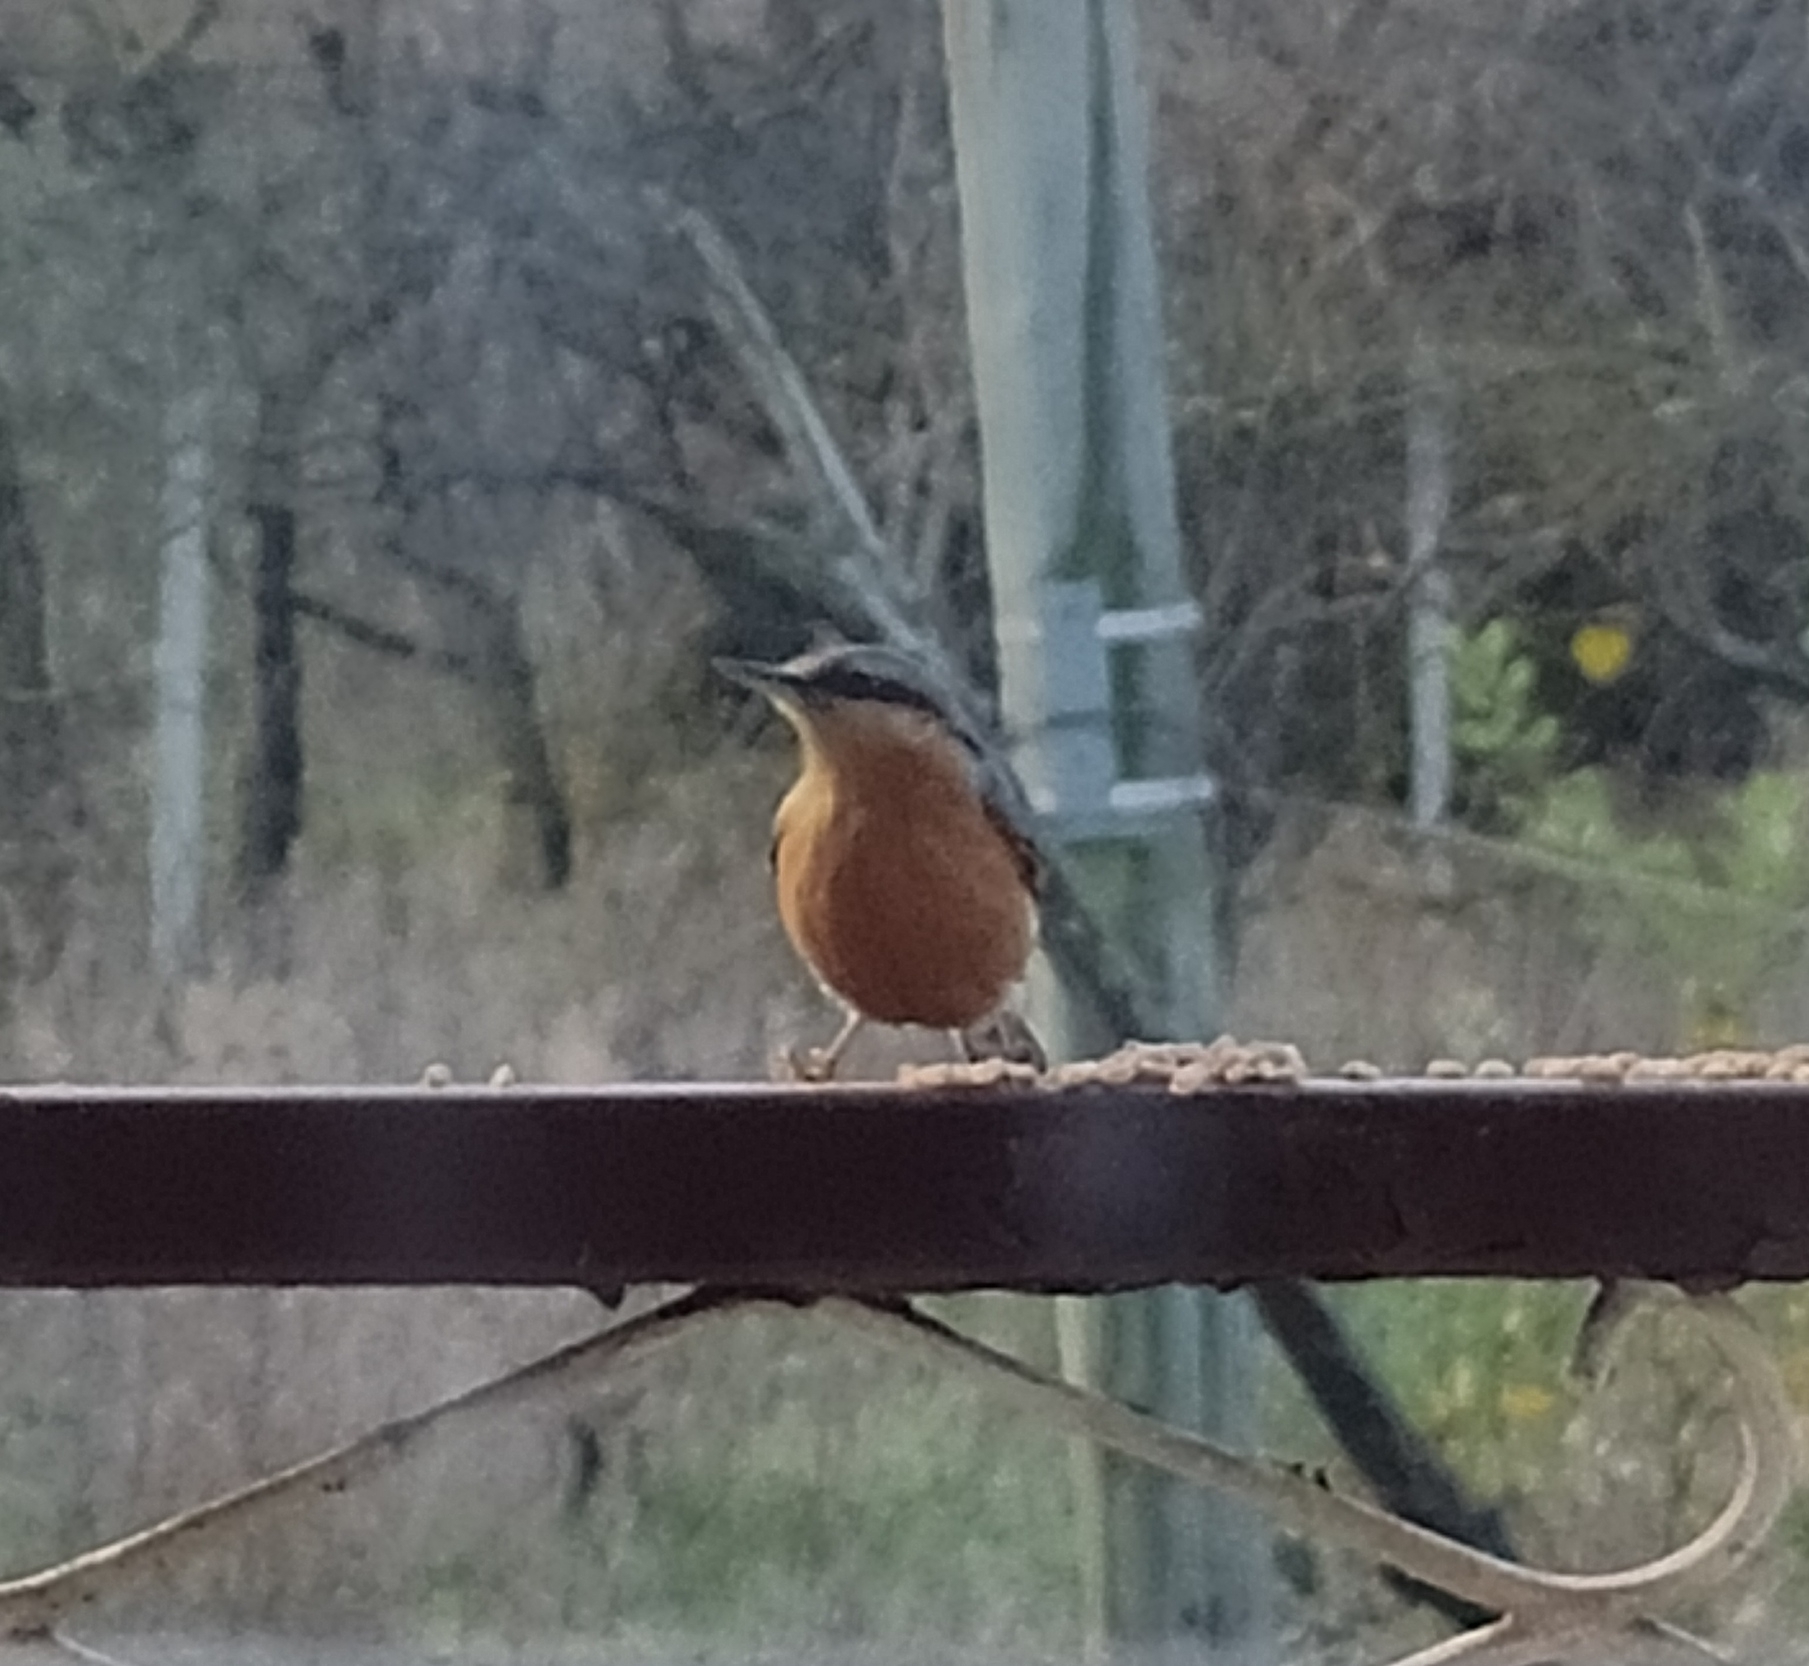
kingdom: Animalia
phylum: Chordata
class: Aves
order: Passeriformes
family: Sittidae
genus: Sitta
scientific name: Sitta europaea
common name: Eurasian nuthatch
